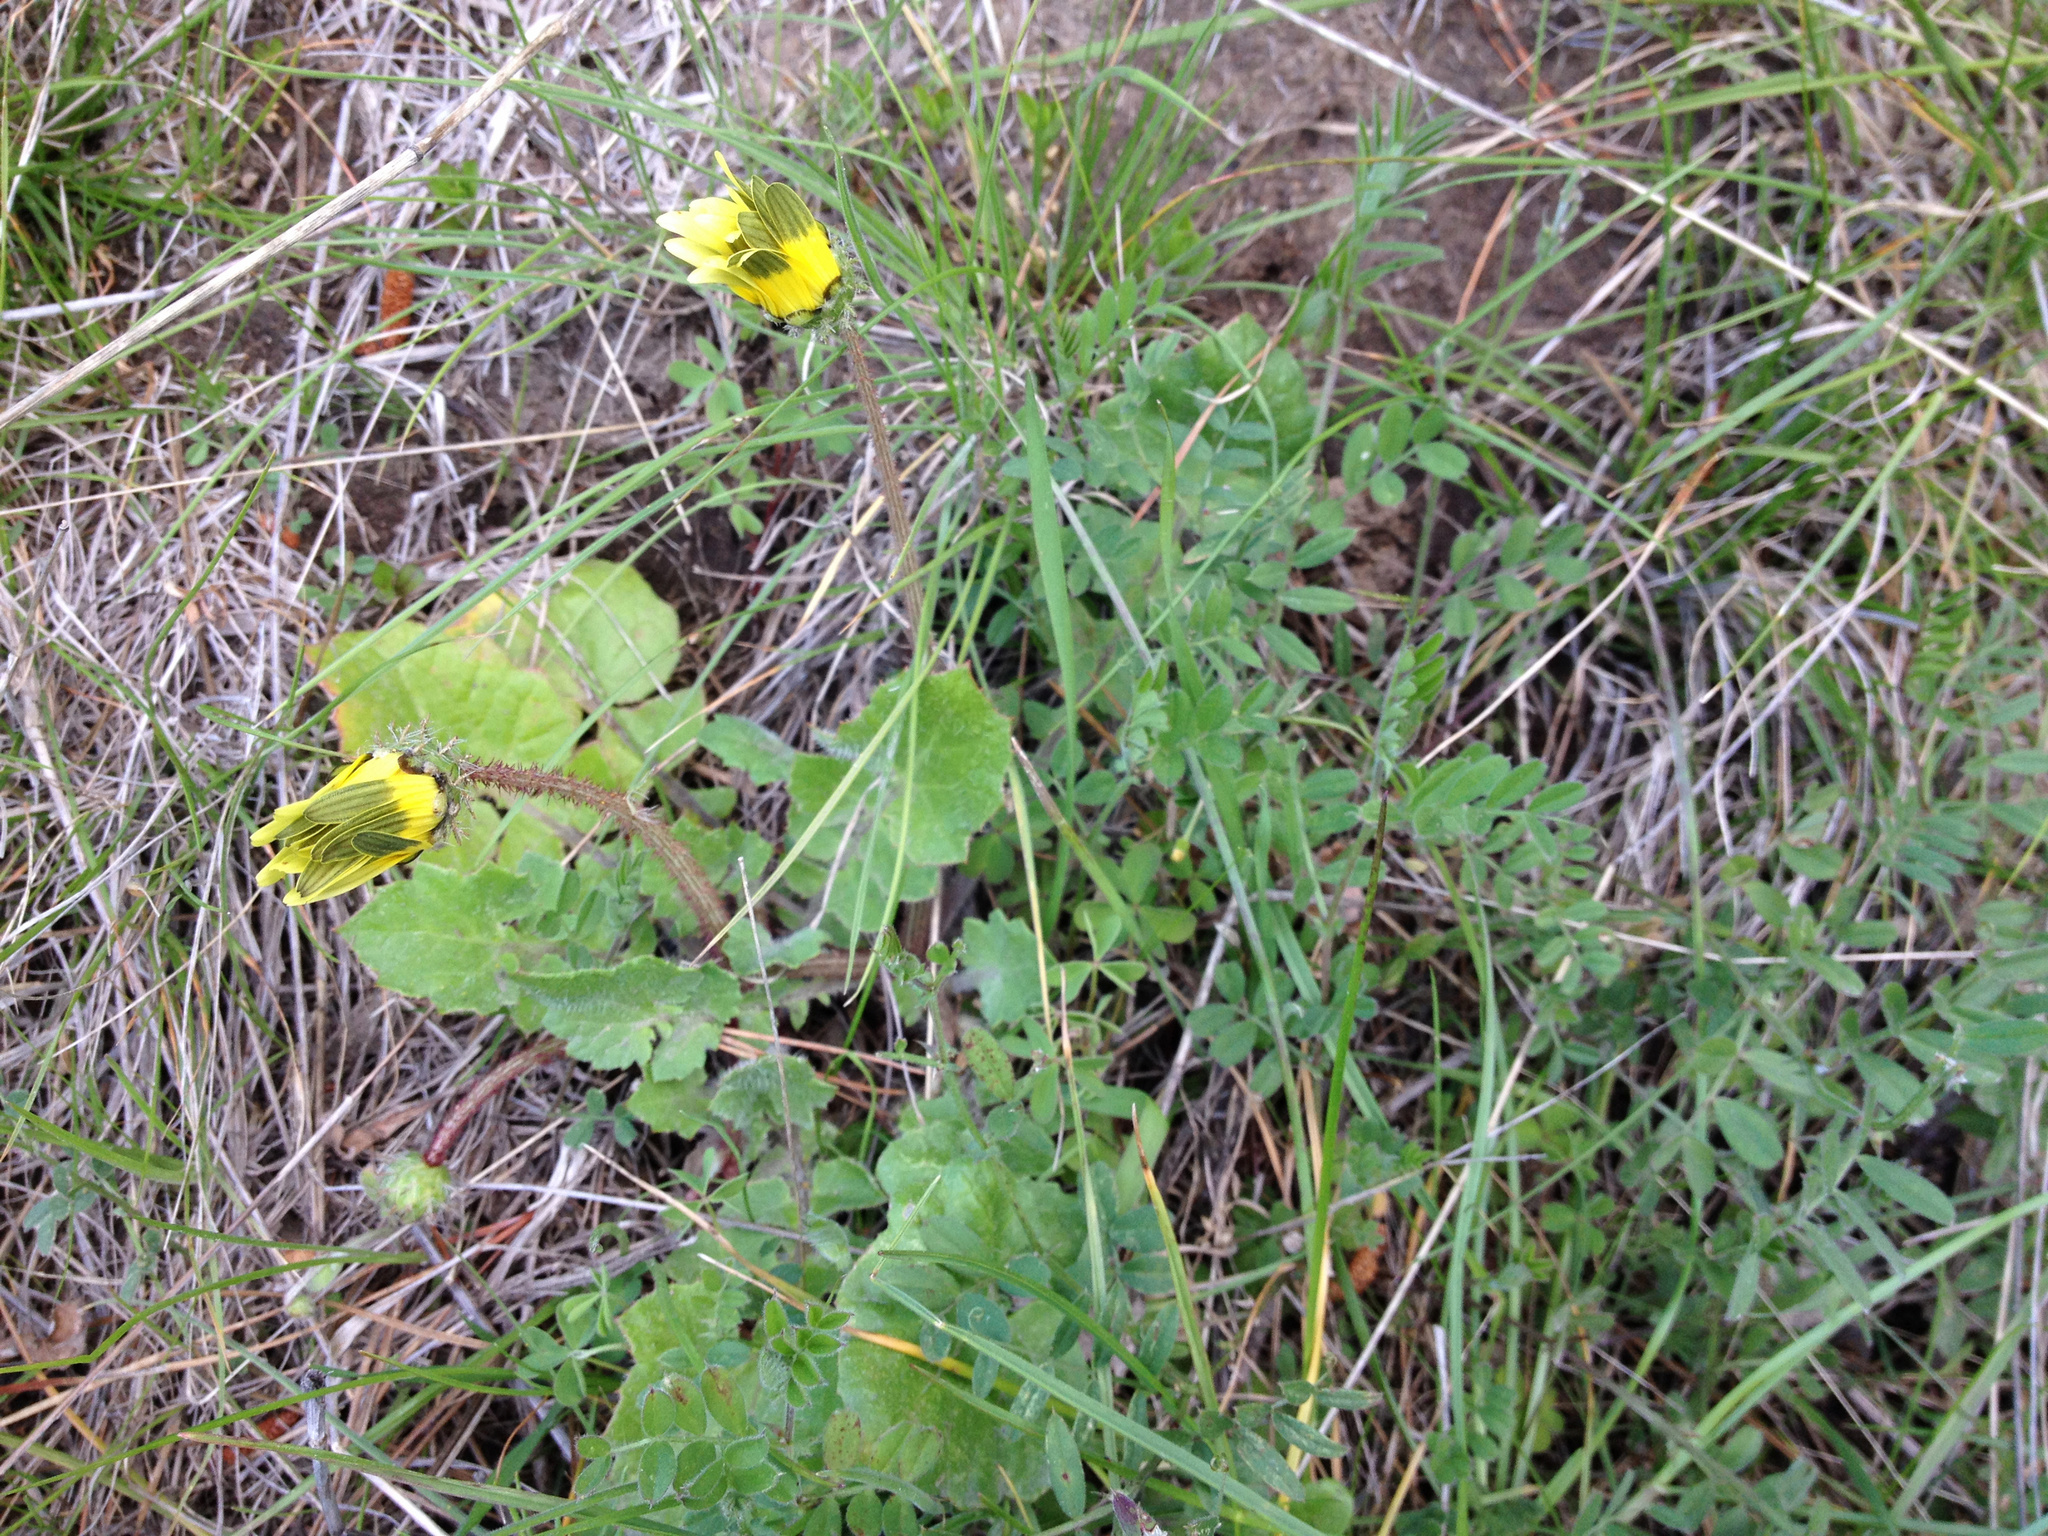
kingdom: Plantae
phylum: Tracheophyta
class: Magnoliopsida
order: Asterales
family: Asteraceae
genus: Arctotheca
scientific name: Arctotheca calendula
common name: Capeweed
